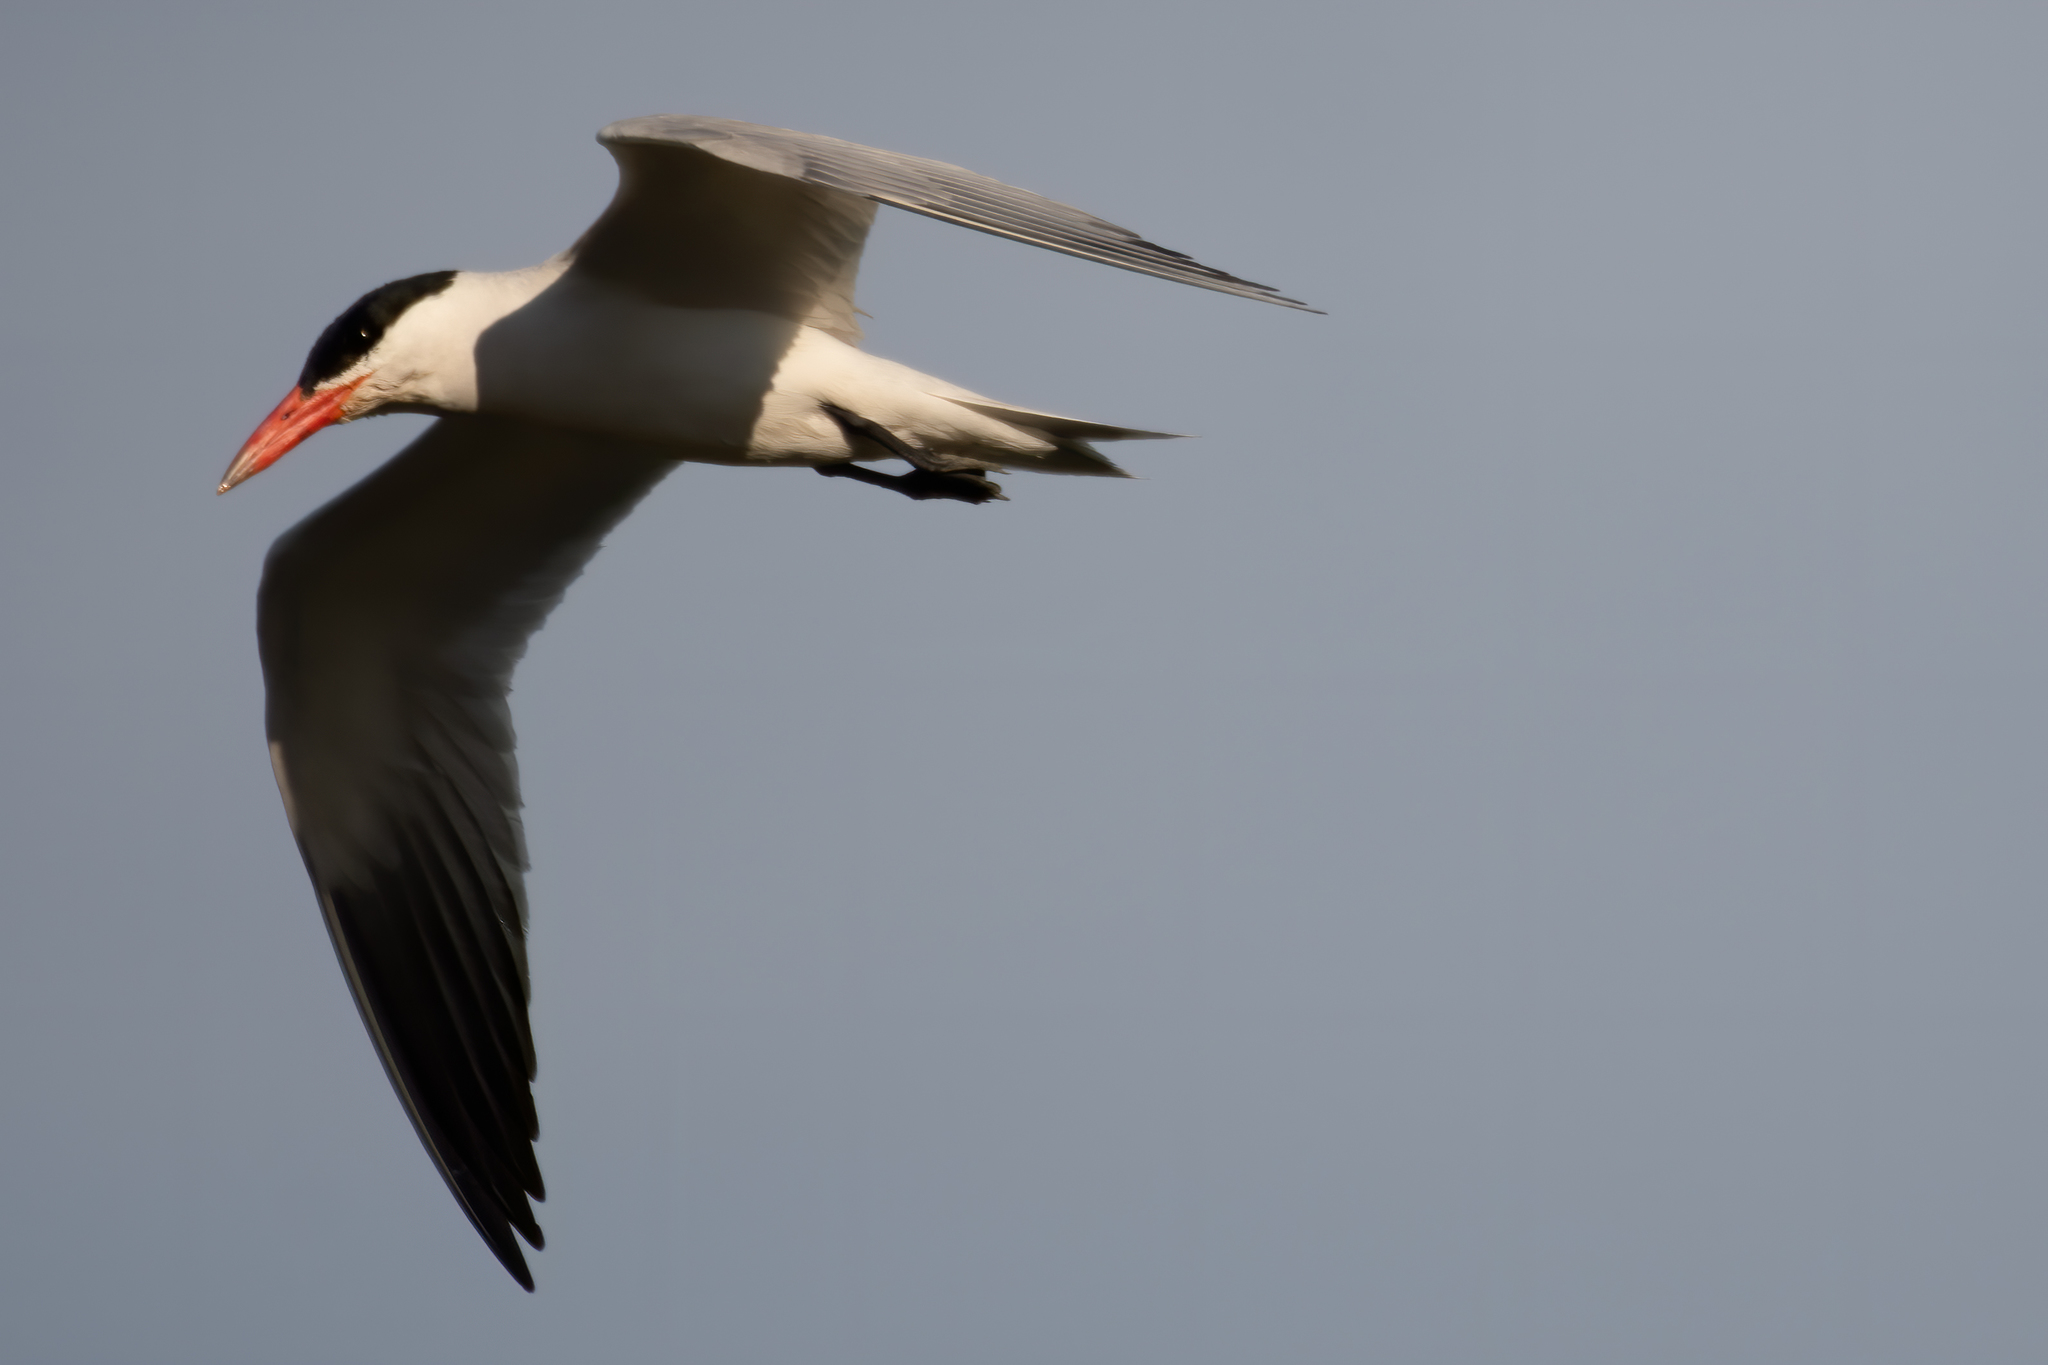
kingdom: Animalia
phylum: Chordata
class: Aves
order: Charadriiformes
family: Laridae
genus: Hydroprogne
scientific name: Hydroprogne caspia
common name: Caspian tern
